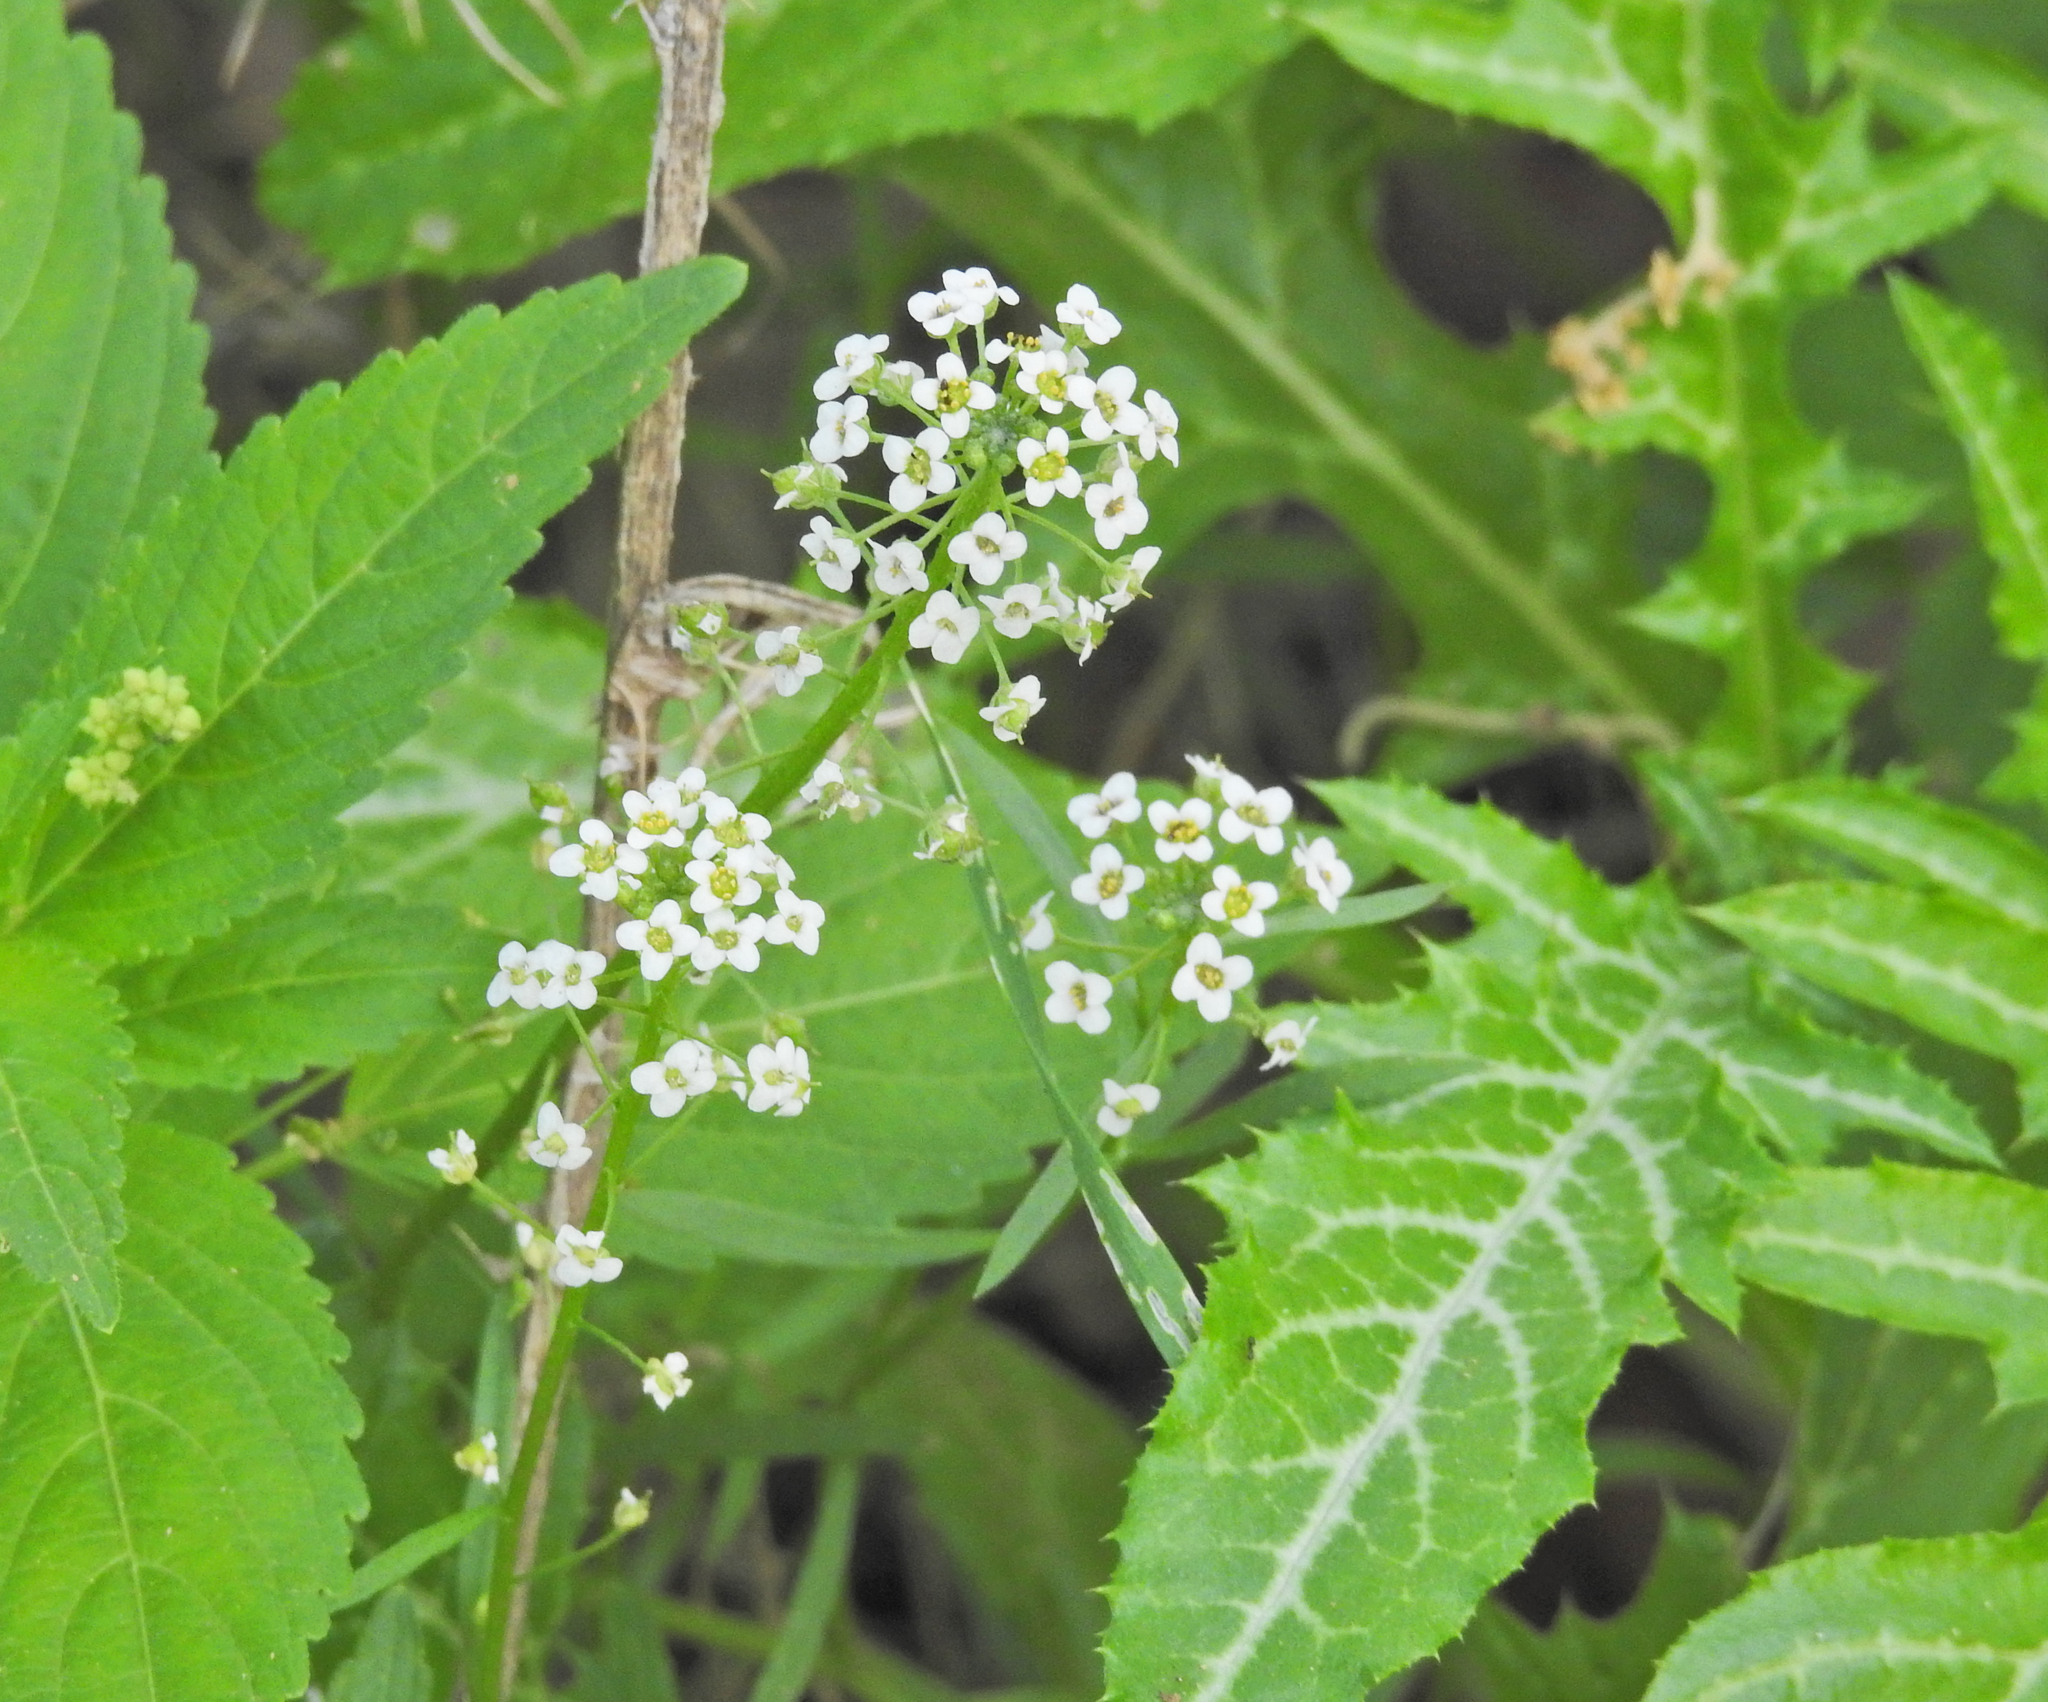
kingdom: Plantae
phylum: Tracheophyta
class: Magnoliopsida
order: Brassicales
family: Brassicaceae
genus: Lobularia
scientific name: Lobularia maritima
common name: Sweet alison
